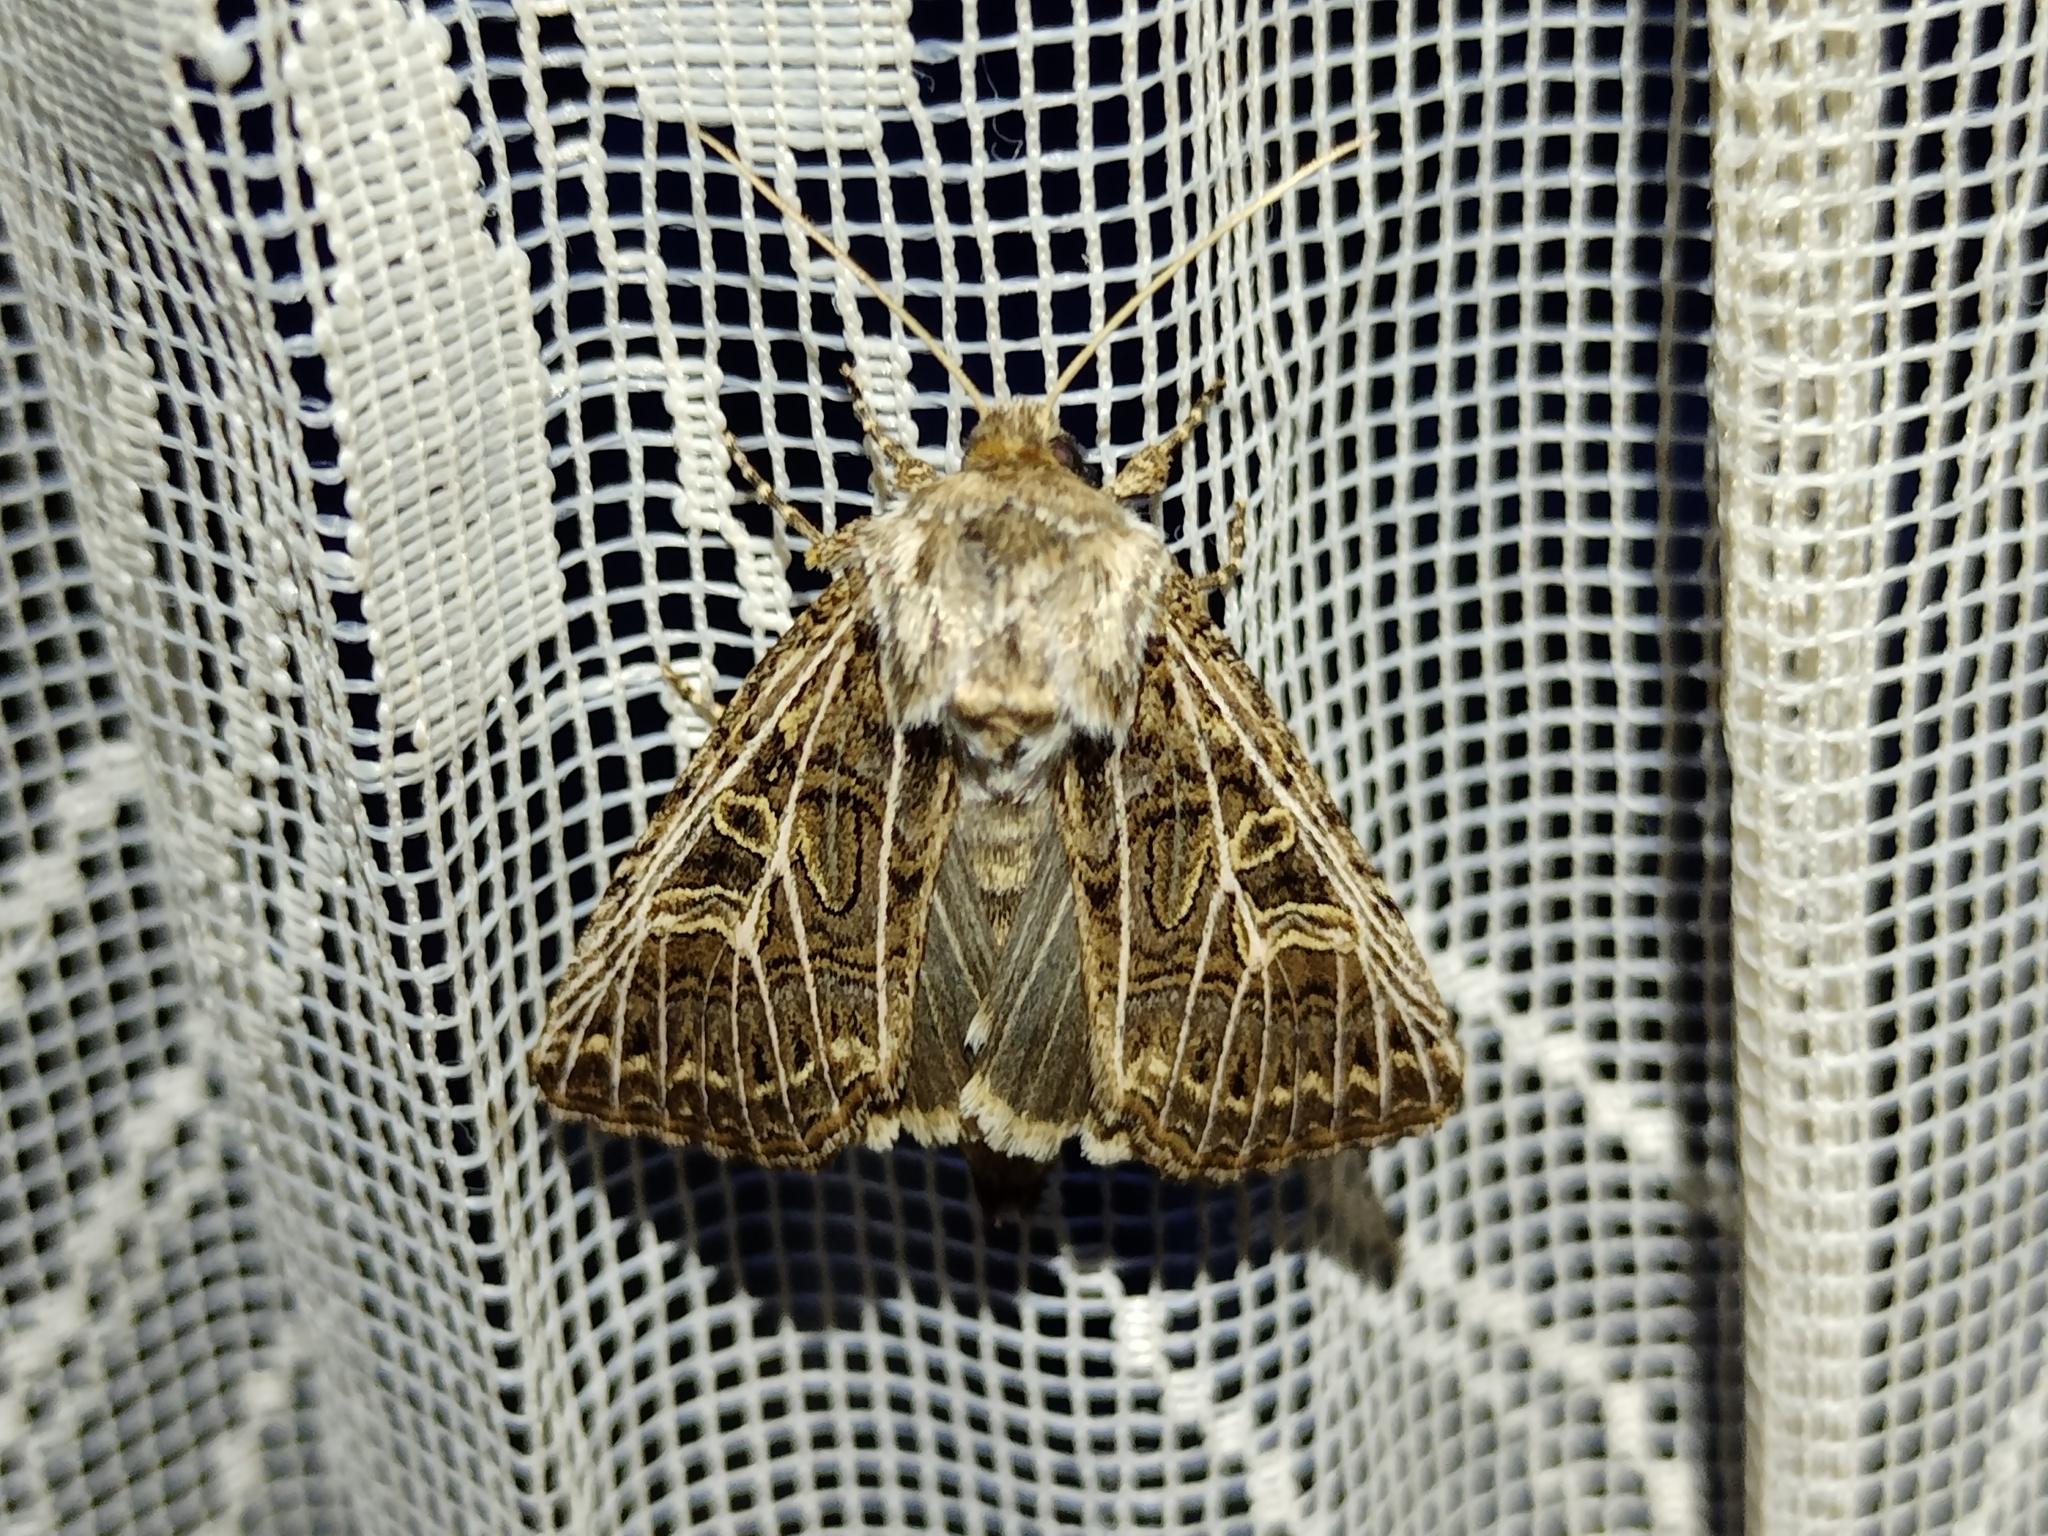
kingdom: Animalia
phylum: Arthropoda
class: Insecta
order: Lepidoptera
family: Noctuidae
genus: Tholera
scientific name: Tholera decimalis
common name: Feathered gothic
